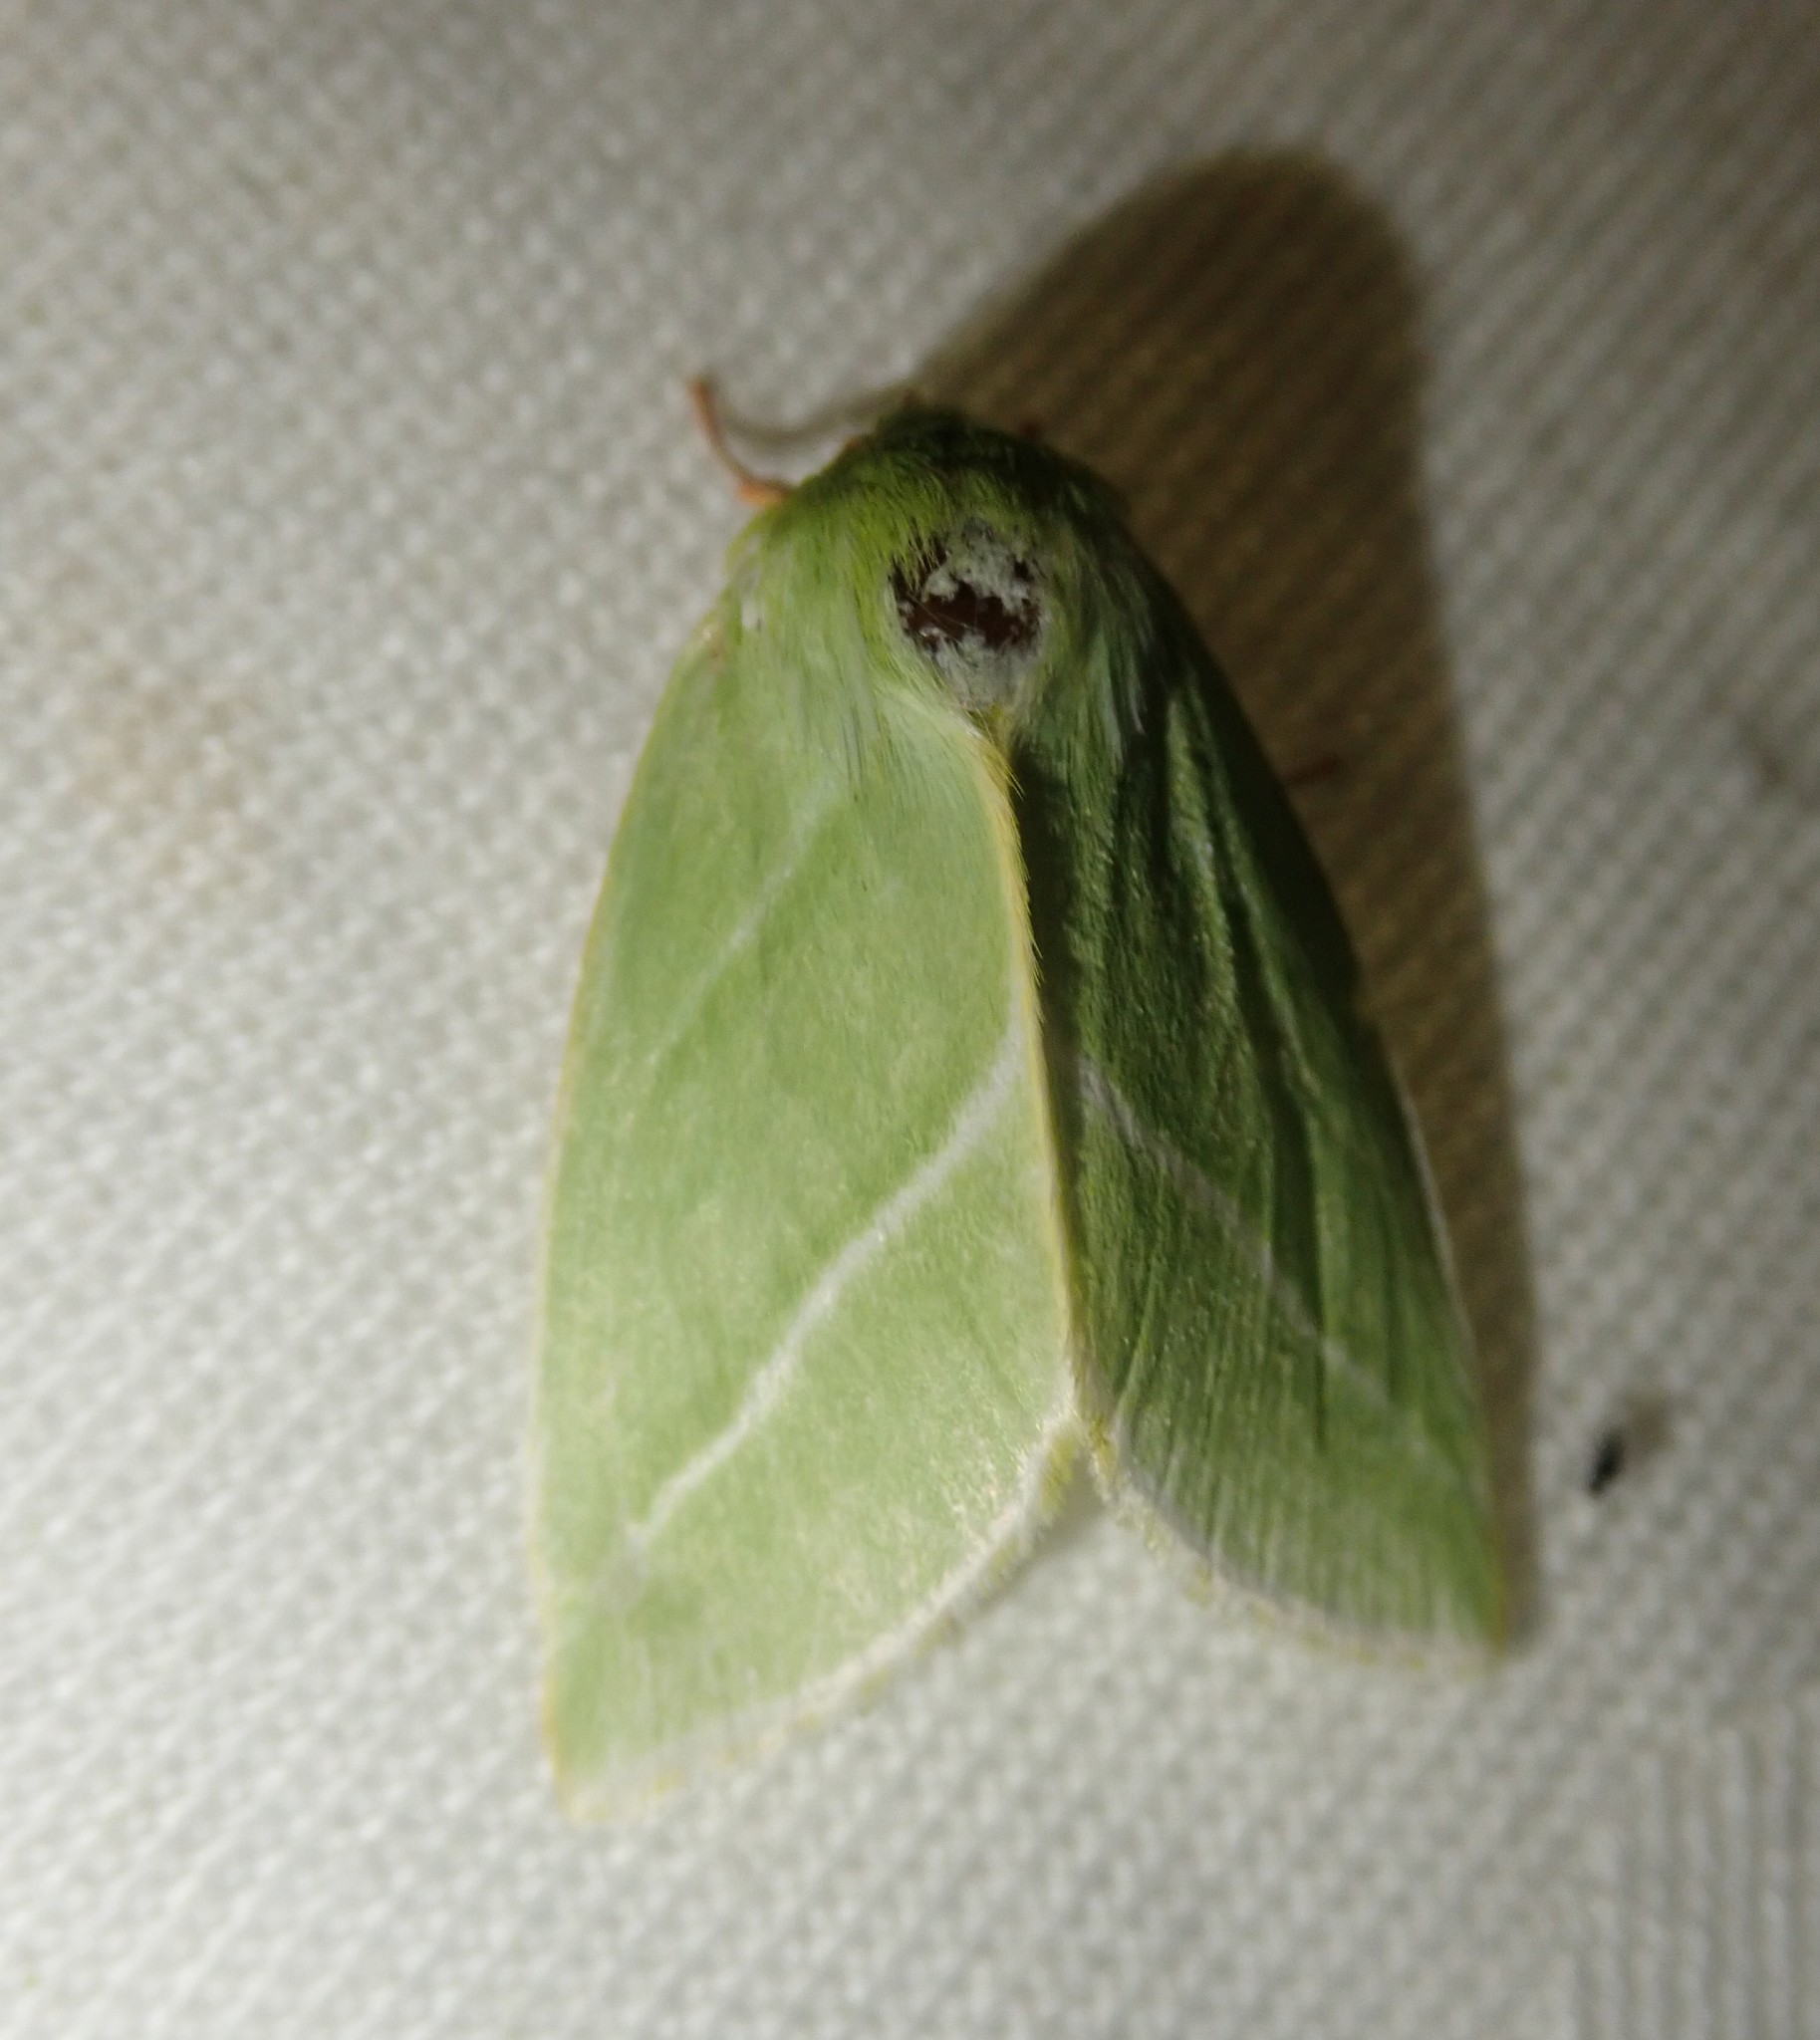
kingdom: Animalia
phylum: Arthropoda
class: Insecta
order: Lepidoptera
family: Nolidae
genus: Pseudoips
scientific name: Pseudoips prasinana
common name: Green silver-lines
